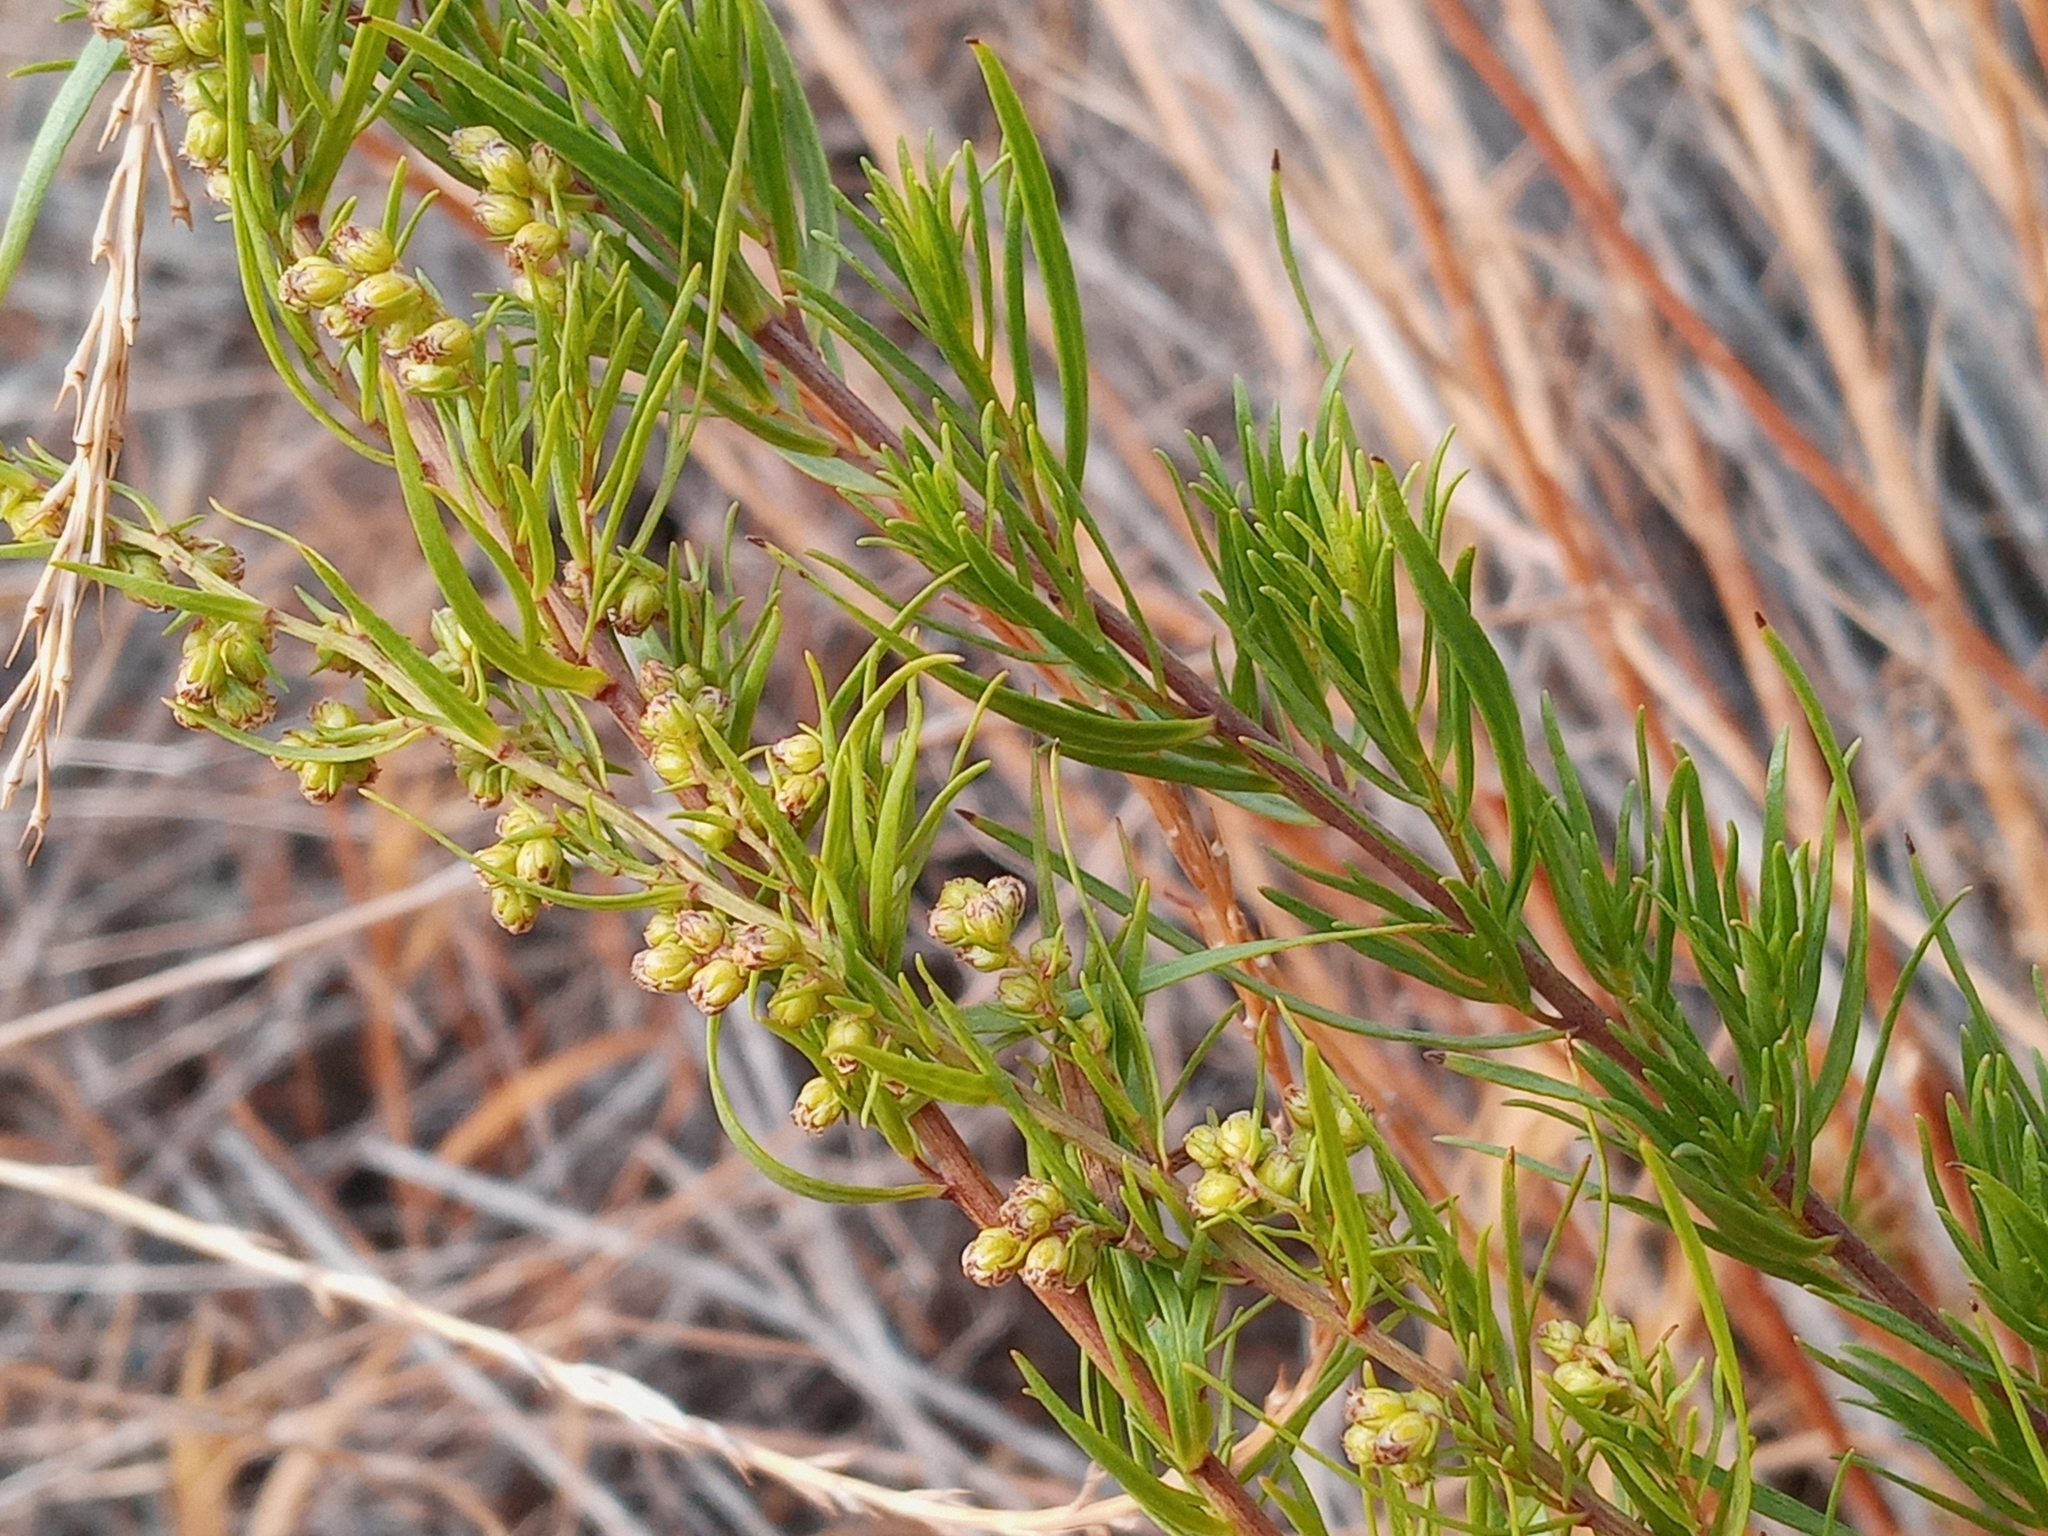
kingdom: Plantae
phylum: Tracheophyta
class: Magnoliopsida
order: Asterales
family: Asteraceae
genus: Artemisia
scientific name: Artemisia dracunculus
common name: Tarragon
